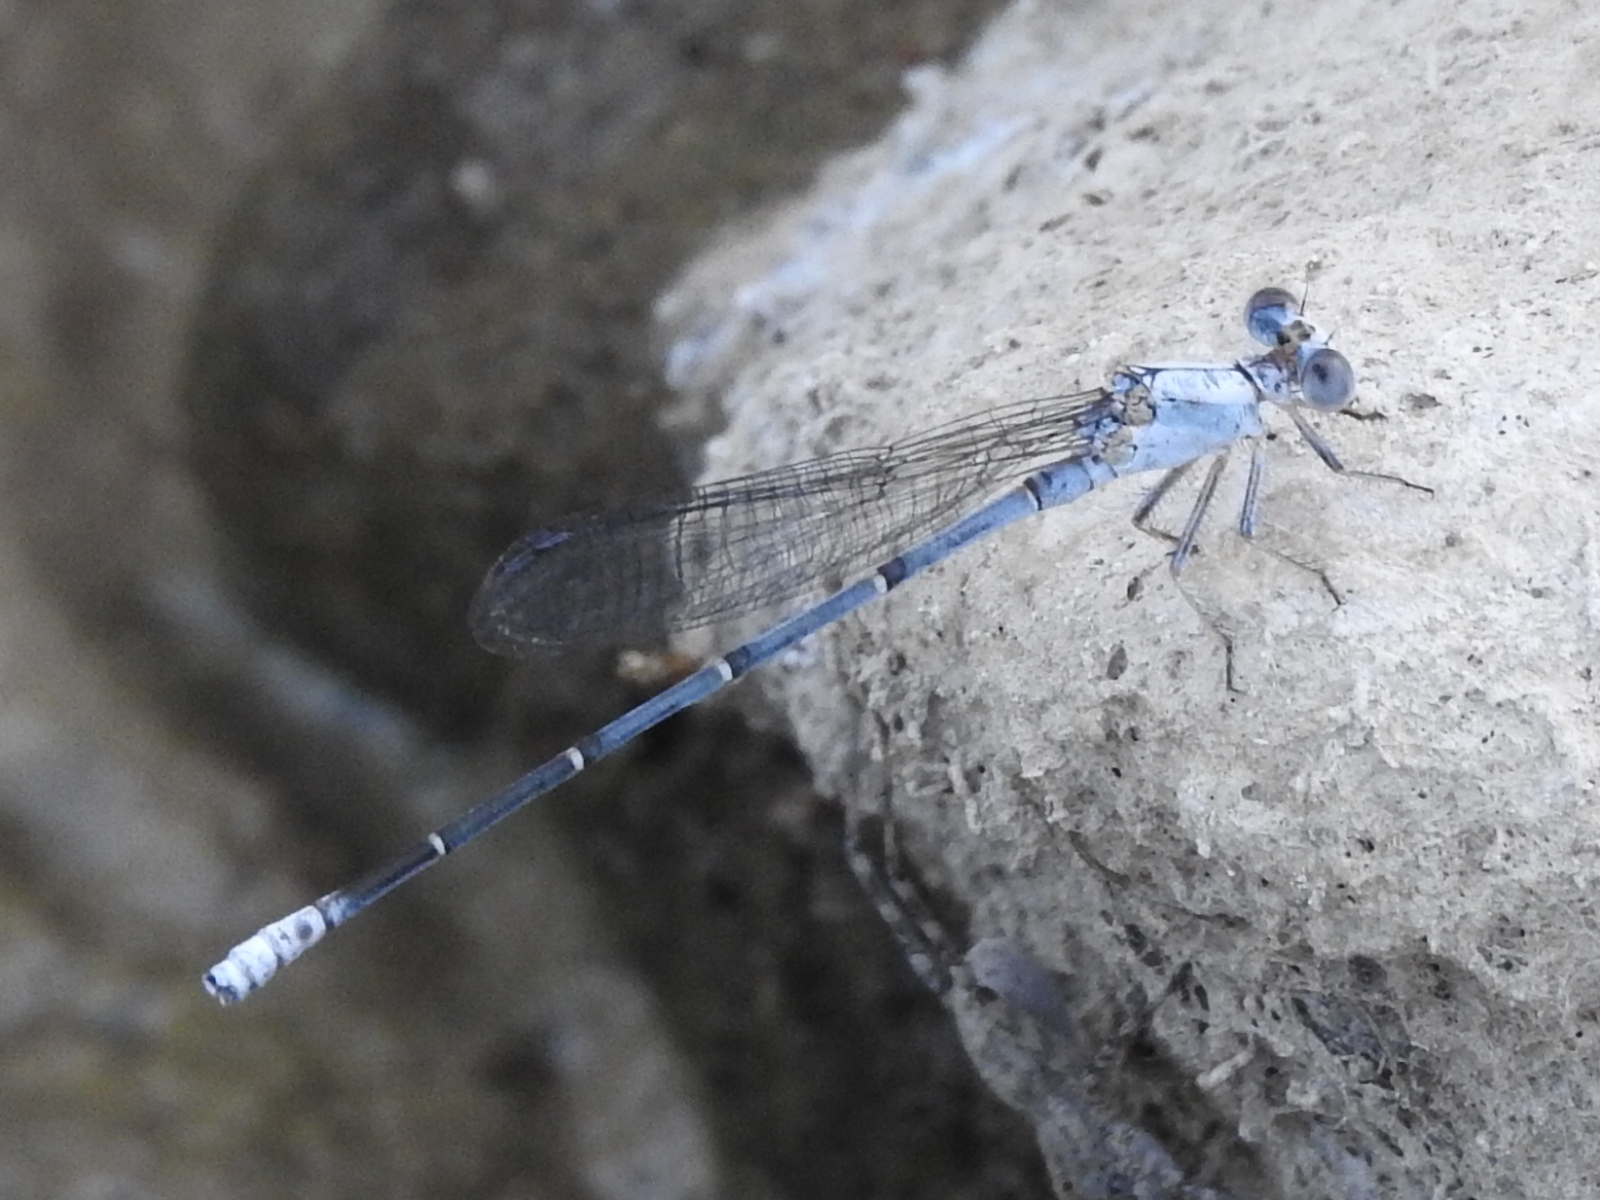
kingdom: Animalia
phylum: Arthropoda
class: Insecta
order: Odonata
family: Coenagrionidae
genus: Argia
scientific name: Argia moesta
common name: Powdered dancer
